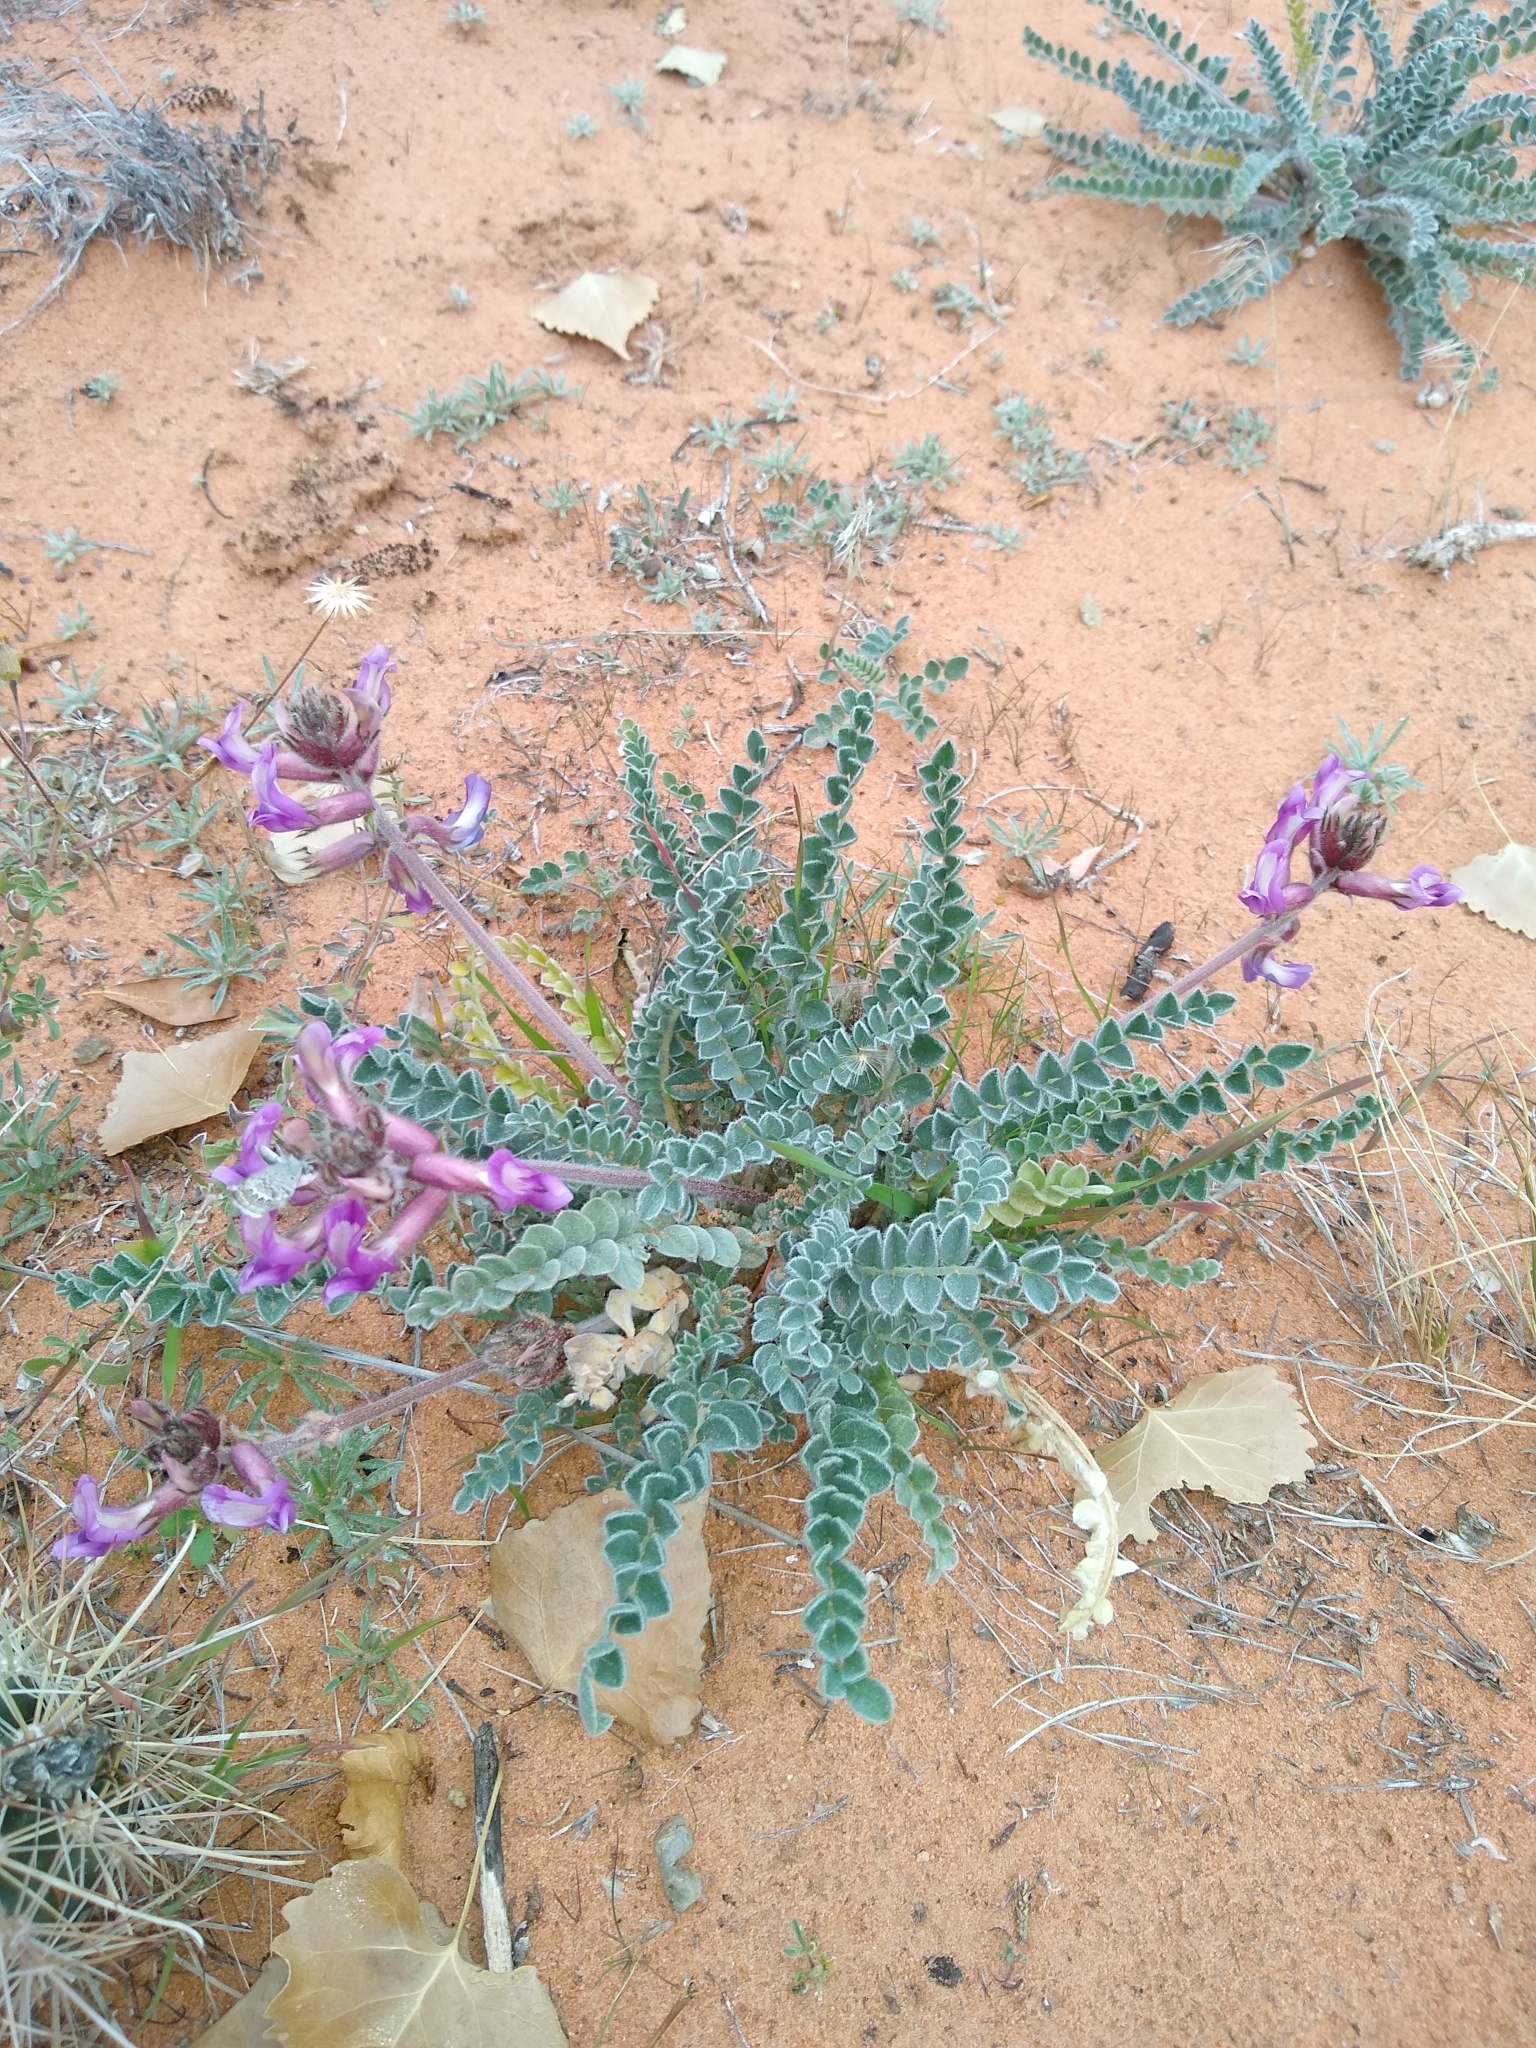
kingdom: Plantae
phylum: Tracheophyta
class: Magnoliopsida
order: Fabales
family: Fabaceae
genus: Astragalus
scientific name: Astragalus mollissimus
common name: Woolly locoweed
